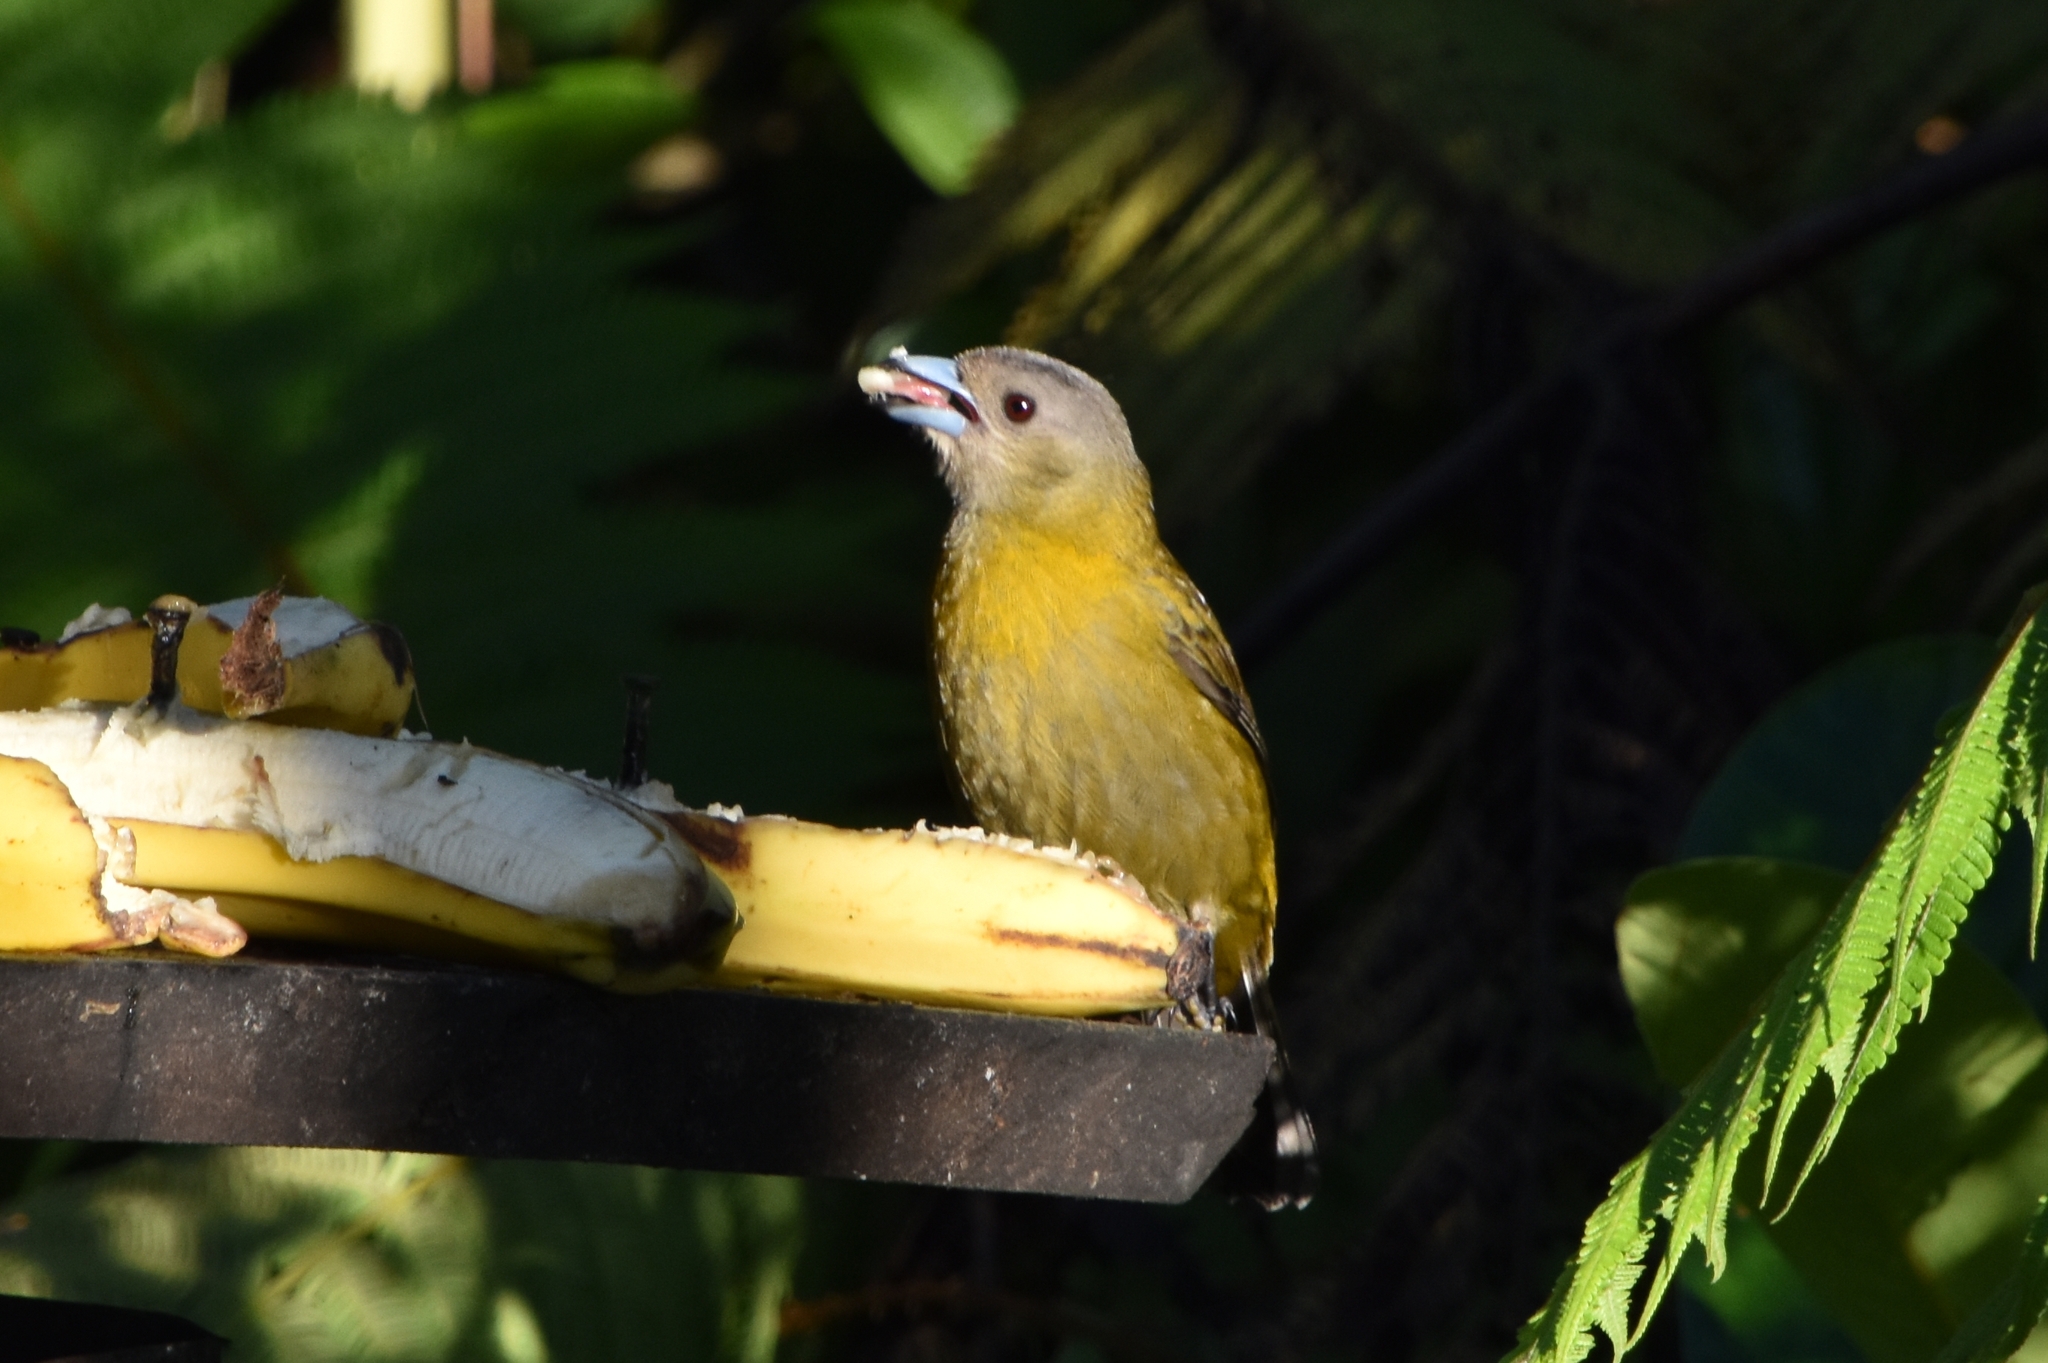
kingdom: Animalia
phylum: Chordata
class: Aves
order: Passeriformes
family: Thraupidae
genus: Ramphocelus
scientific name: Ramphocelus passerinii
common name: Passerini's tanager
